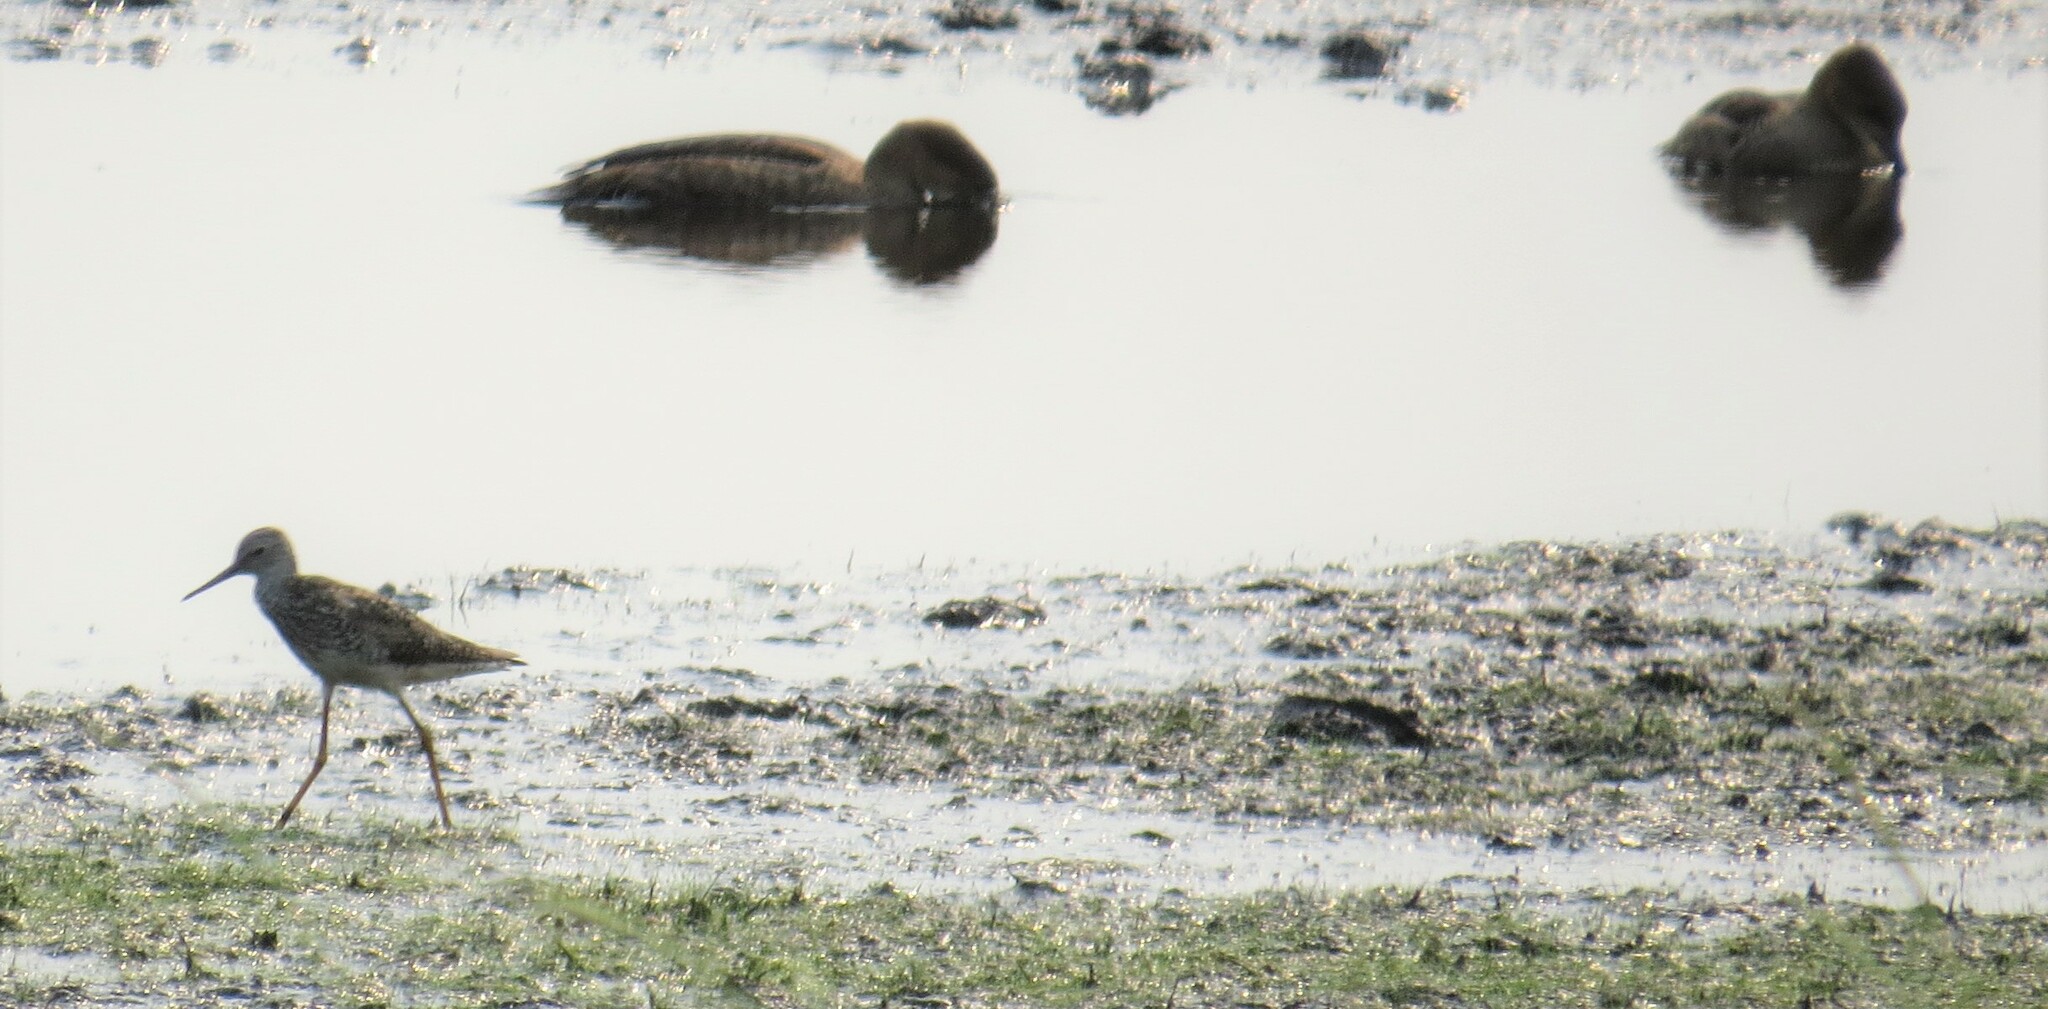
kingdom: Animalia
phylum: Chordata
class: Aves
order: Charadriiformes
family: Scolopacidae
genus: Tringa
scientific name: Tringa flavipes
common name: Lesser yellowlegs
